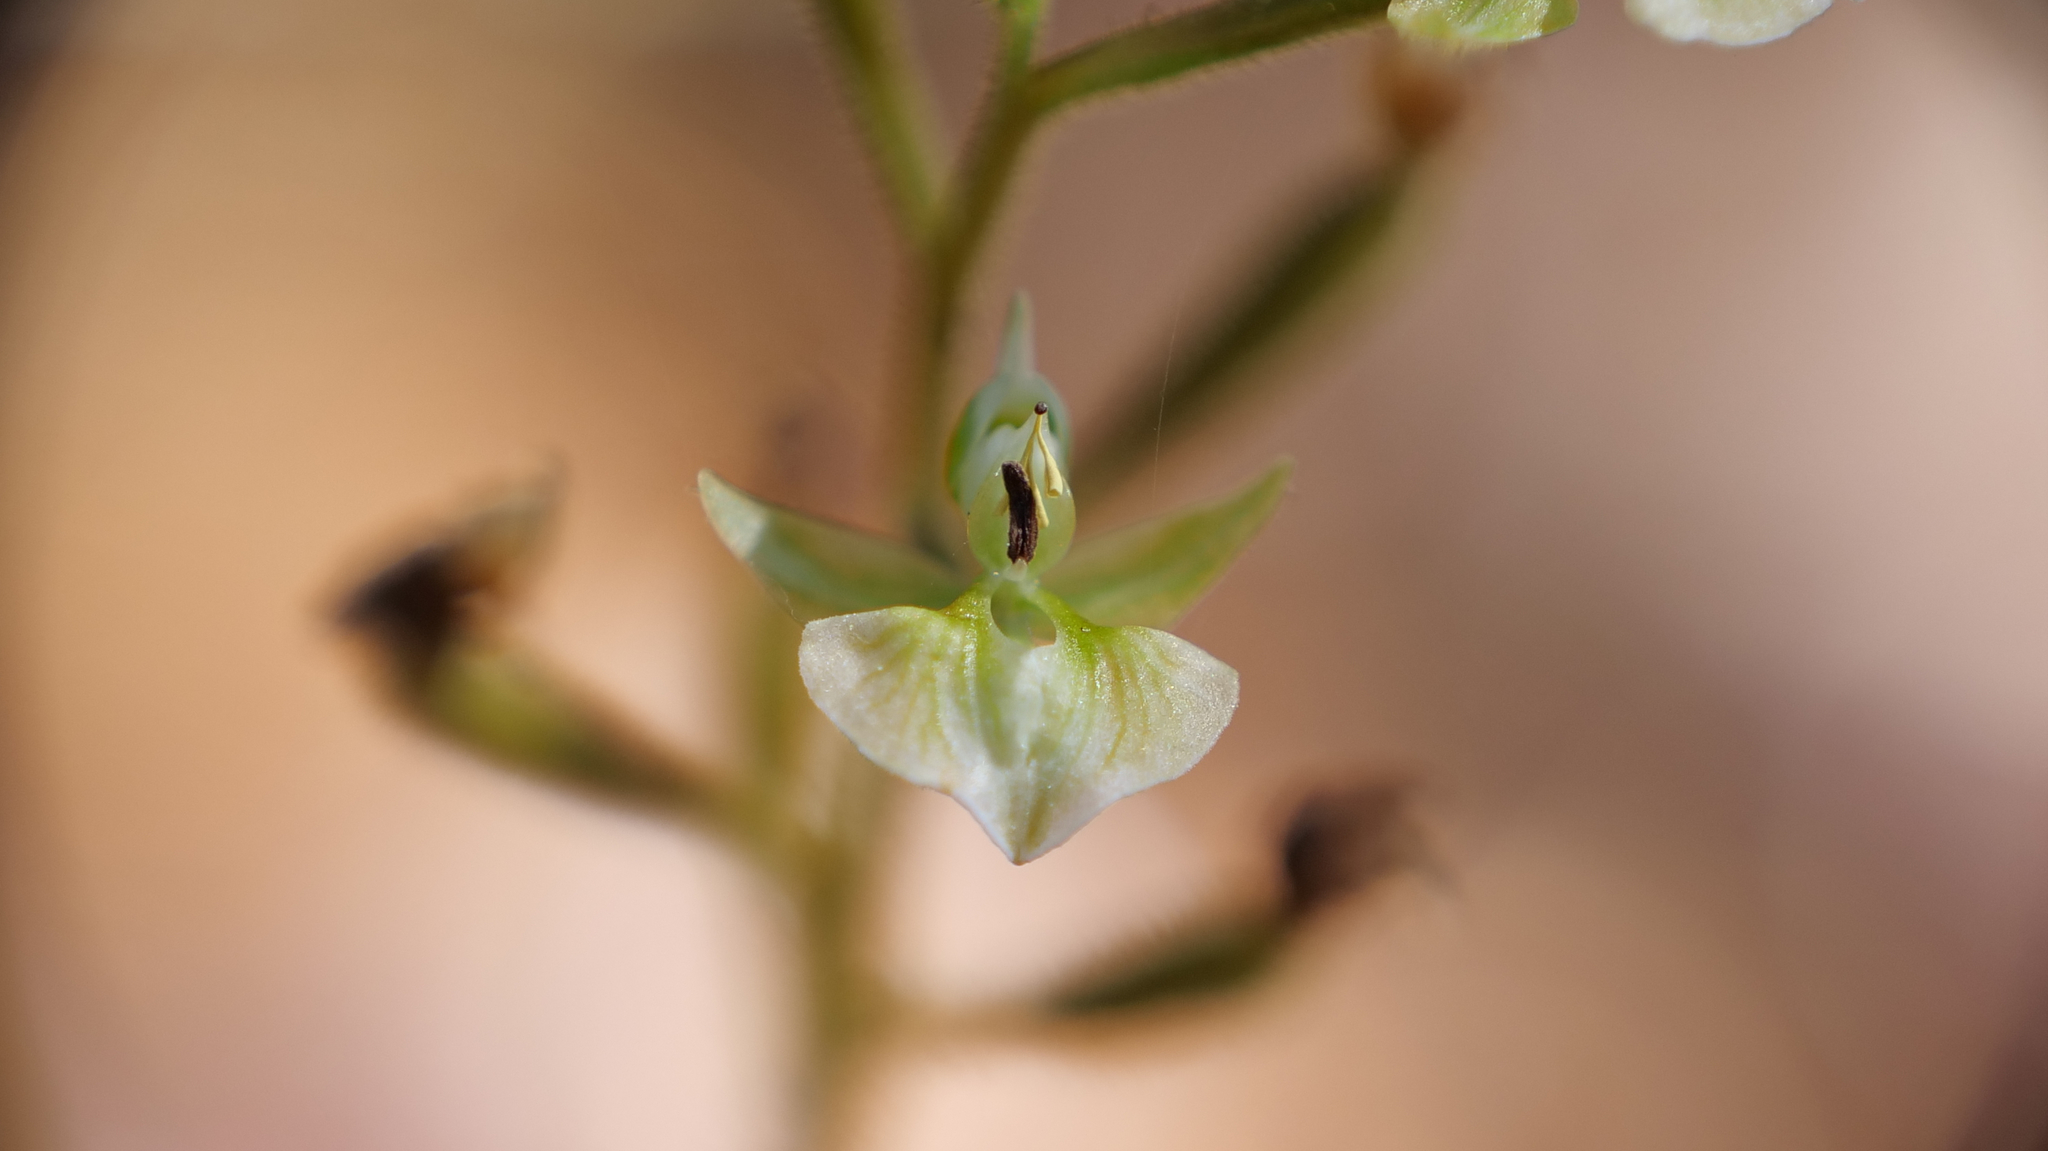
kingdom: Plantae
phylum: Tracheophyta
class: Liliopsida
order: Asparagales
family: Orchidaceae
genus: Ponthieva
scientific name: Ponthieva racemosa
